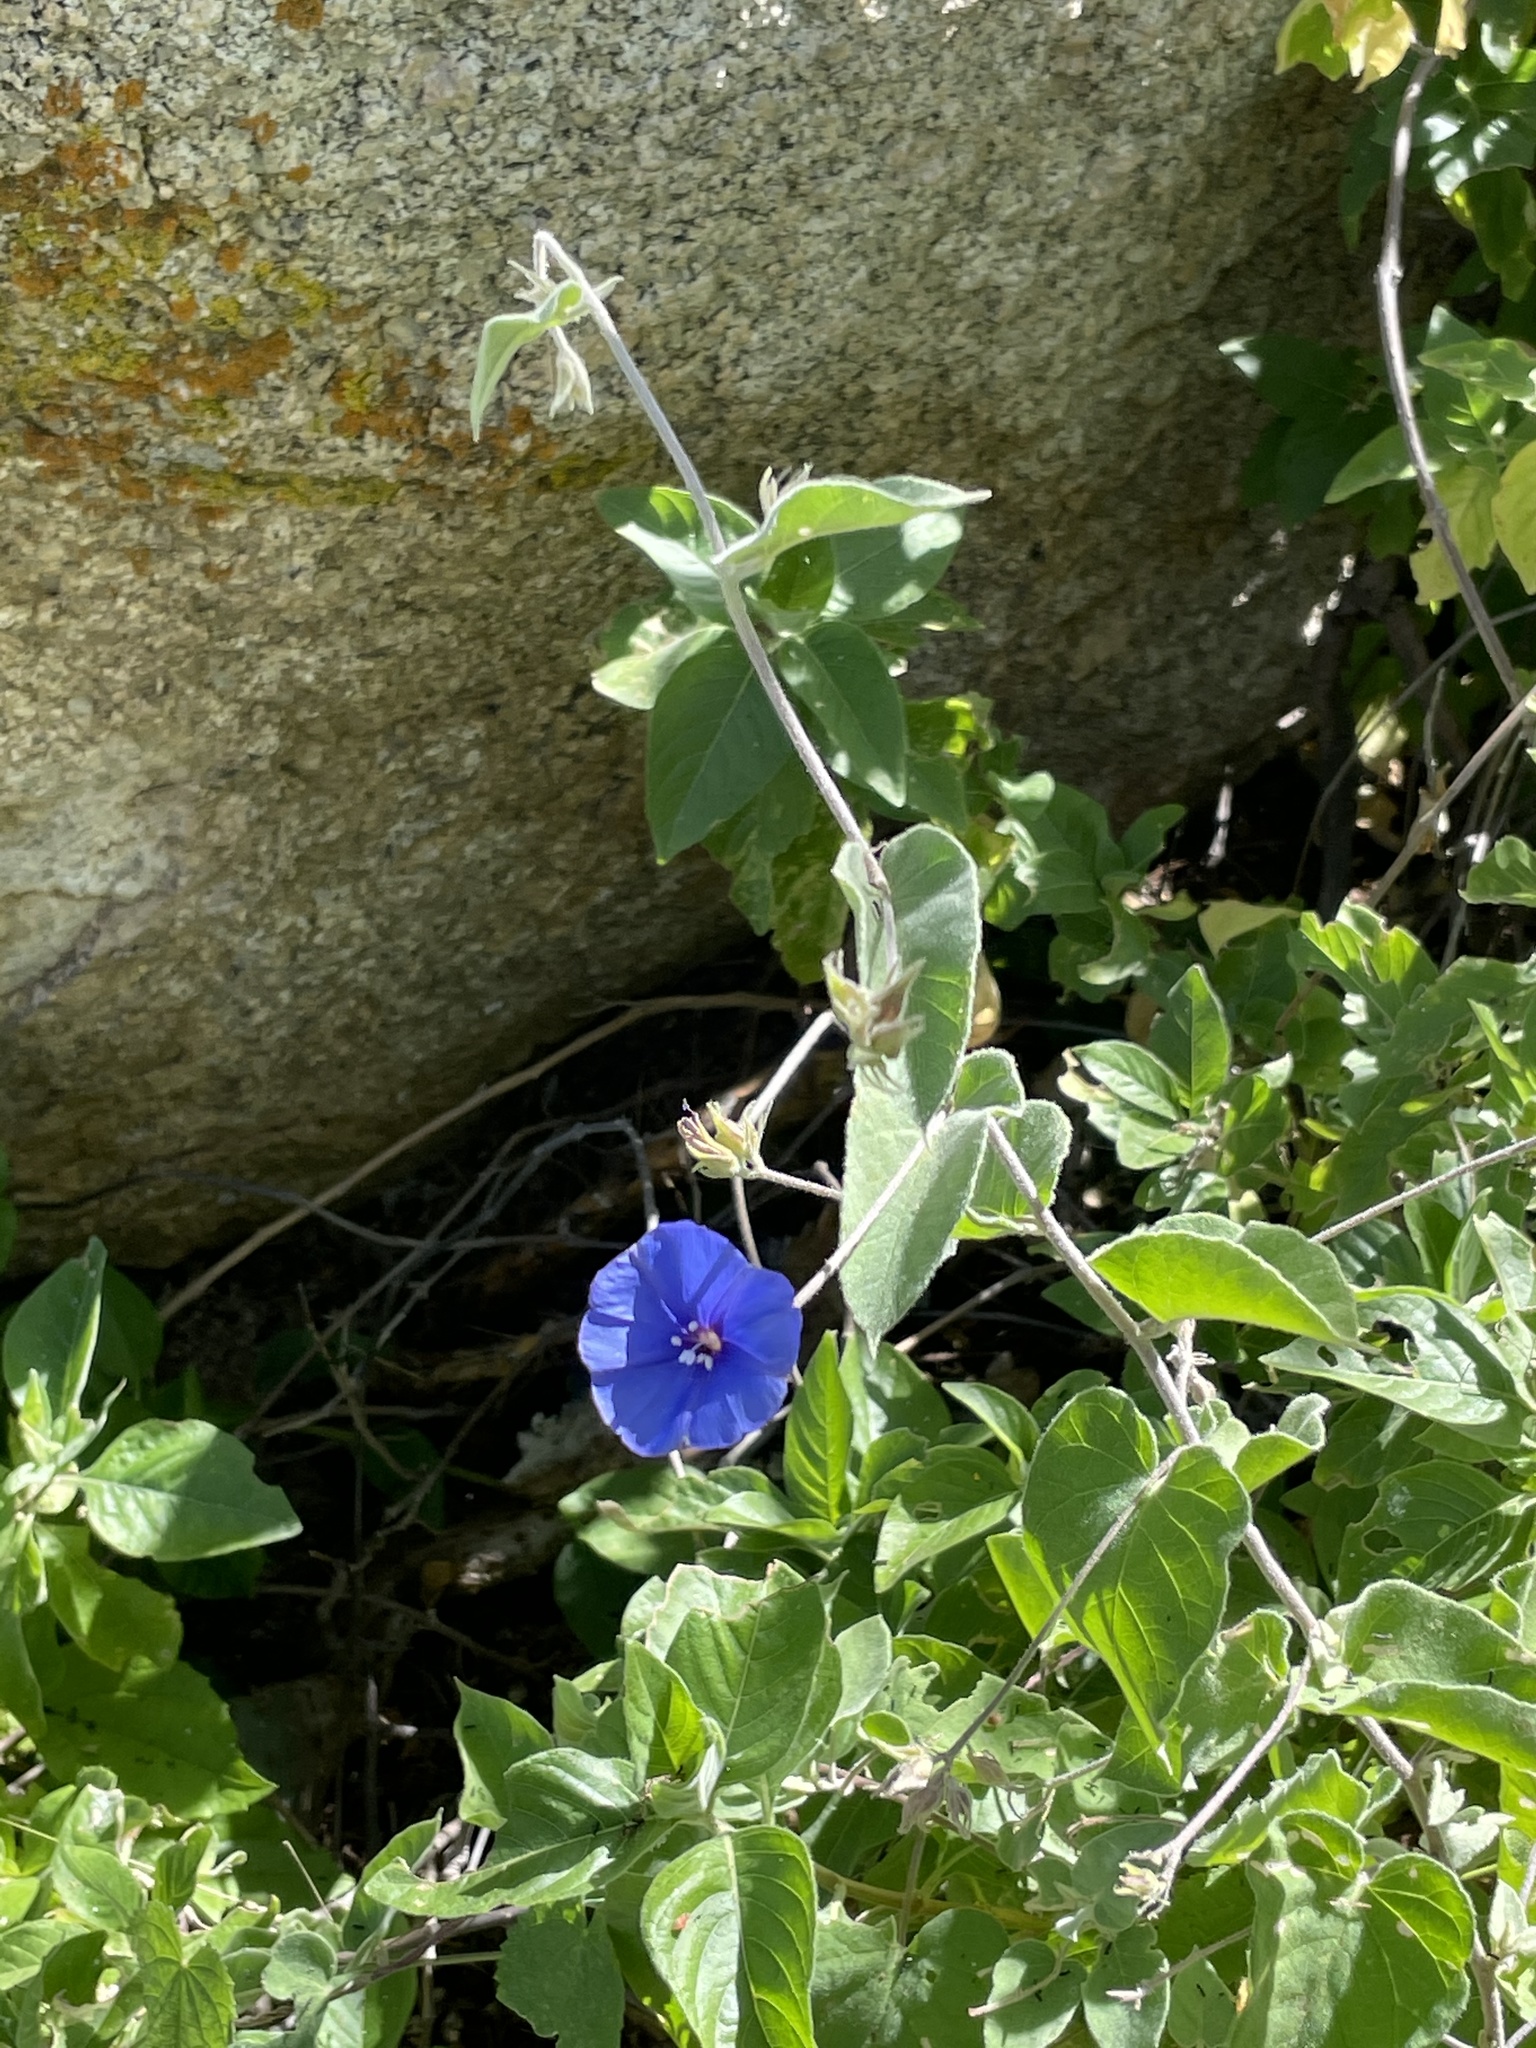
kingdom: Plantae
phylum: Tracheophyta
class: Magnoliopsida
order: Solanales
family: Convolvulaceae
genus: Jacquemontia
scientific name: Jacquemontia abutiloides
